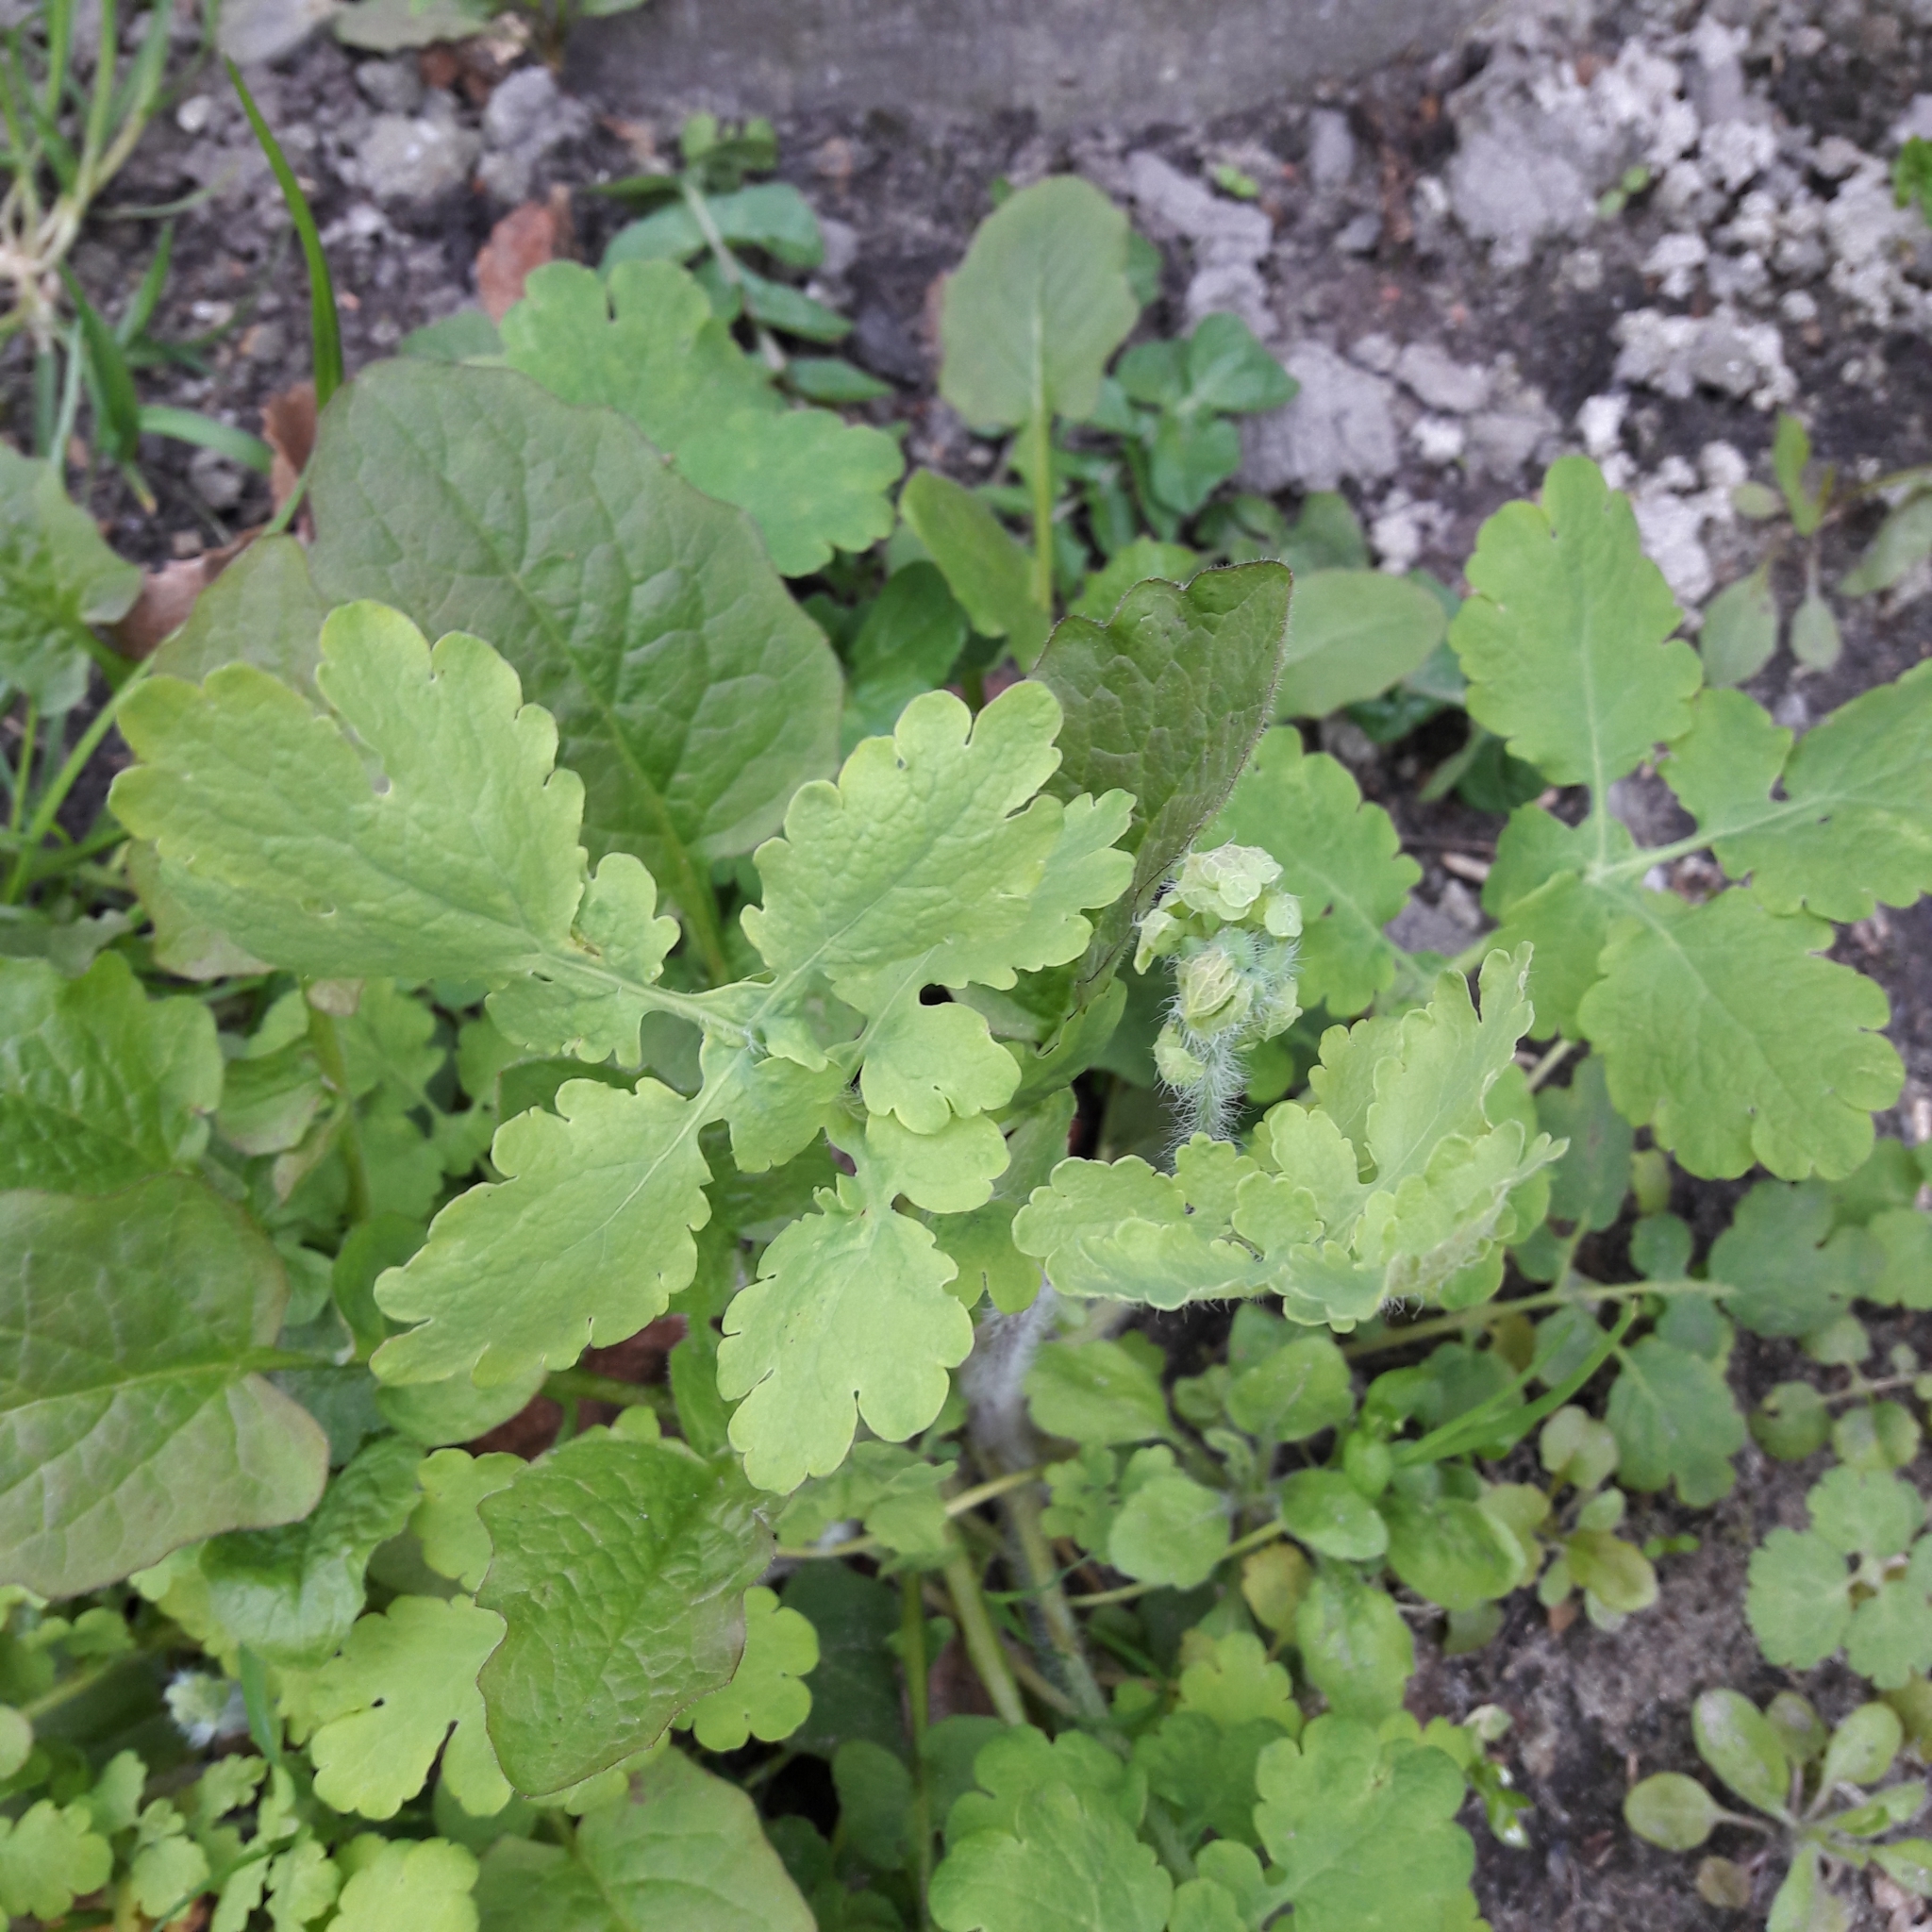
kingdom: Plantae
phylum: Tracheophyta
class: Magnoliopsida
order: Ranunculales
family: Papaveraceae
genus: Chelidonium
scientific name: Chelidonium majus
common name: Greater celandine
